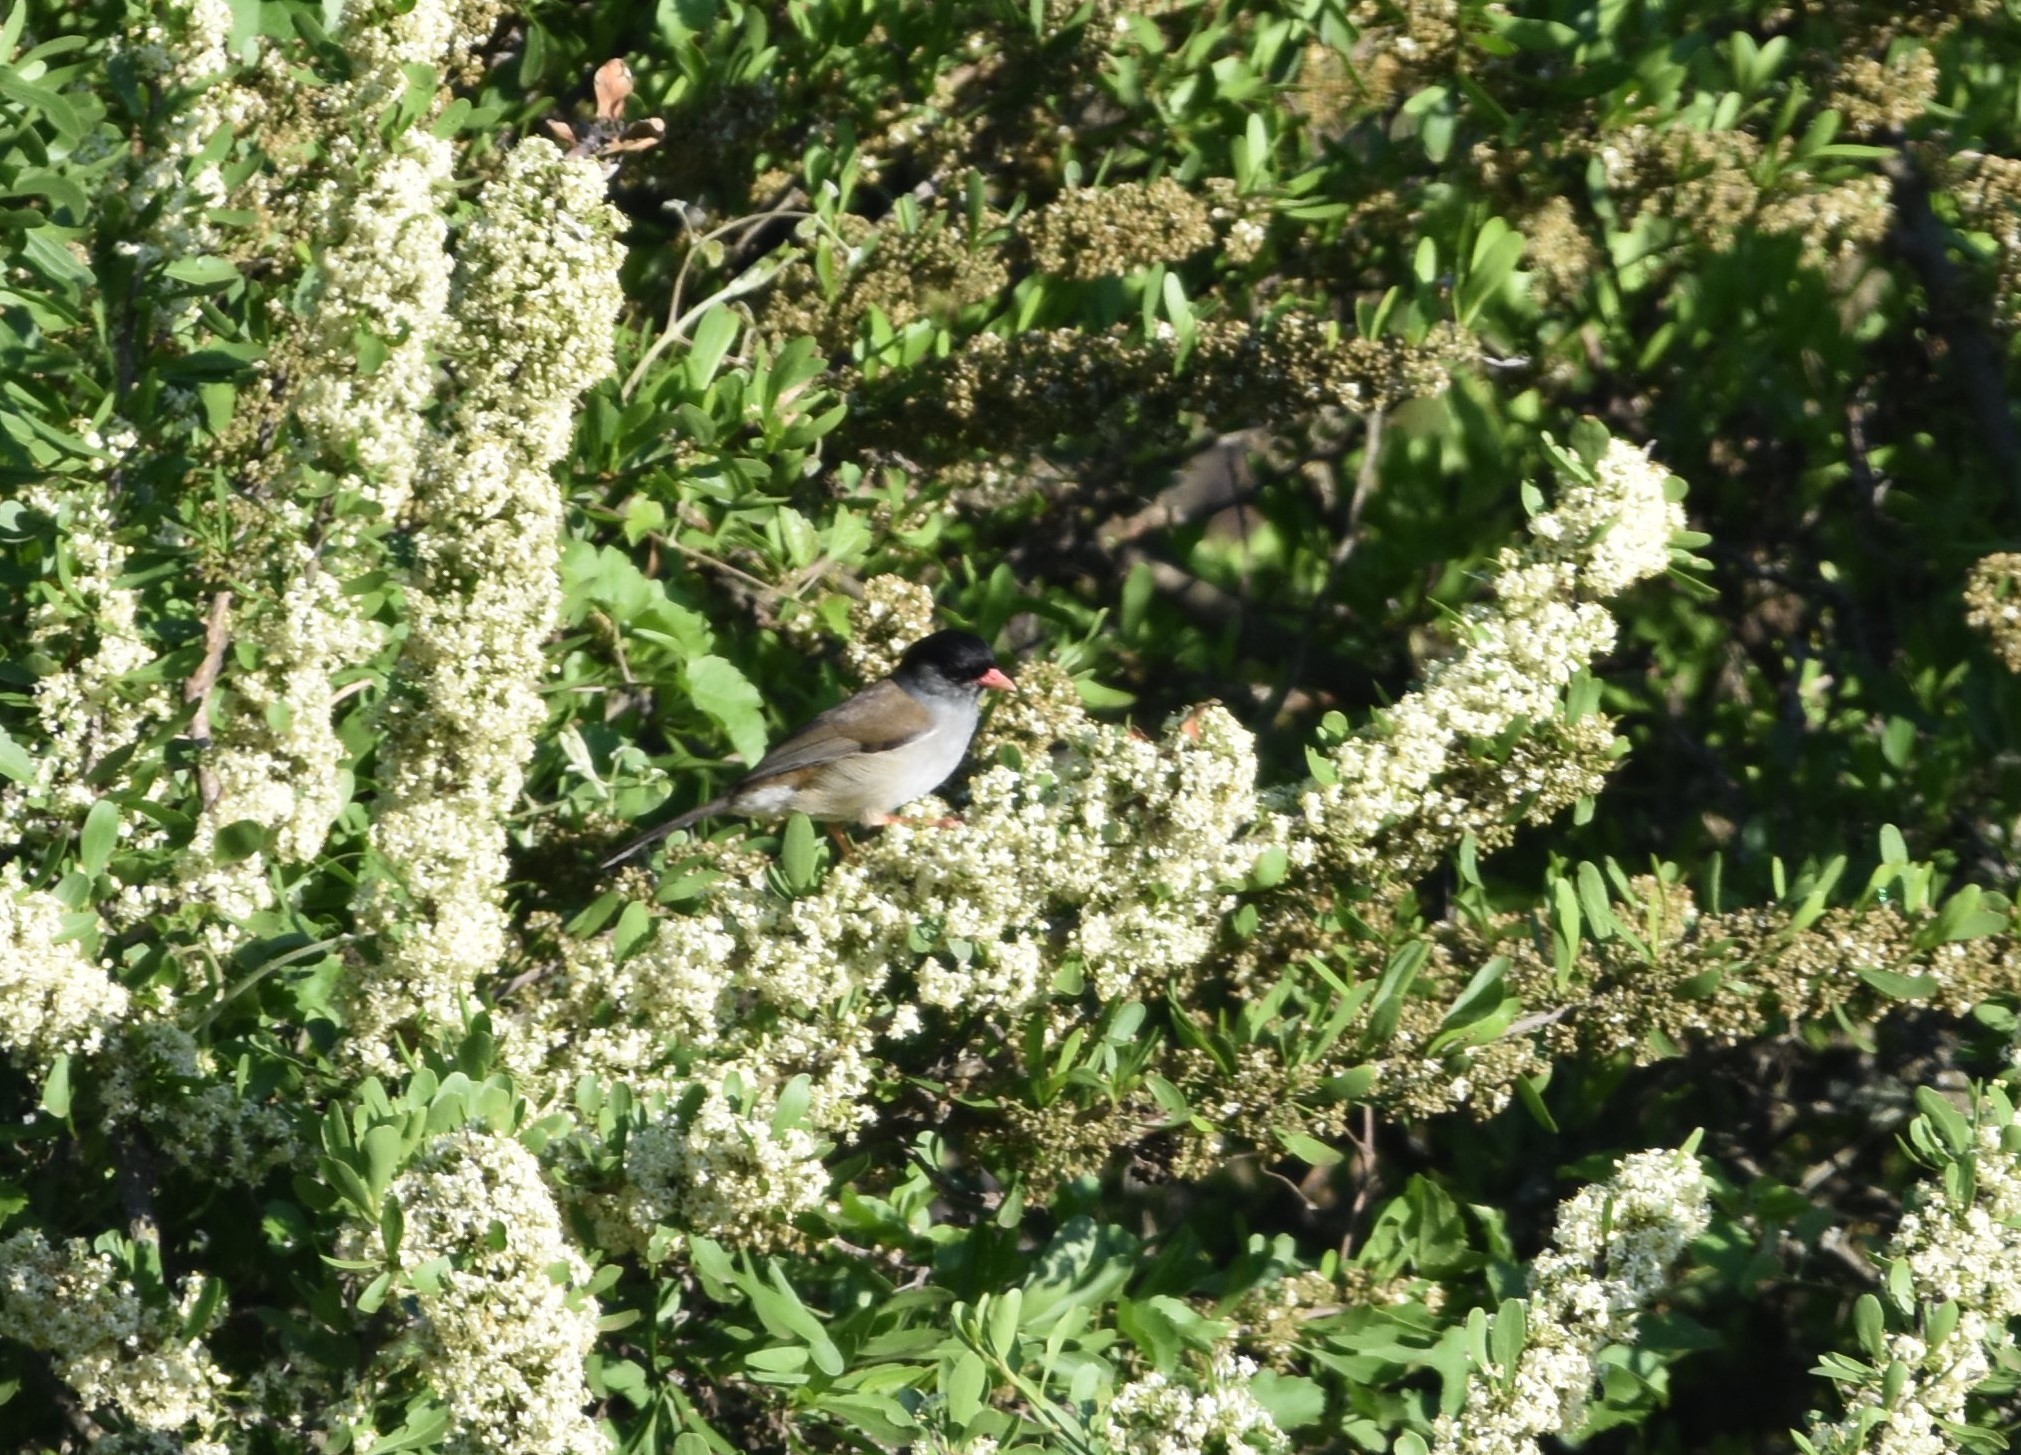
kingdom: Animalia
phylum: Chordata
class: Aves
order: Passeriformes
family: Sylviidae
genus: Lioptilus
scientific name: Lioptilus nigricapillus
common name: Bush blackcap
